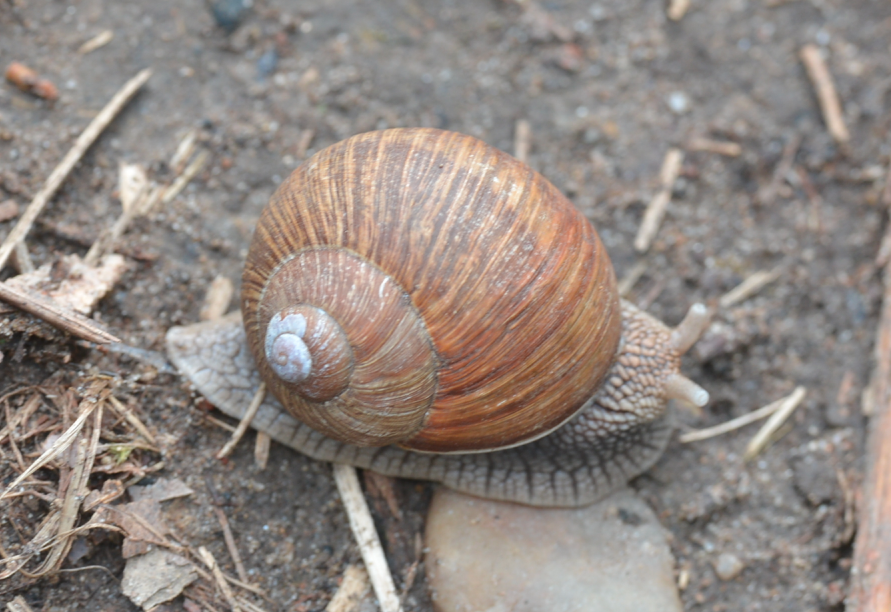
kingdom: Animalia
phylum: Mollusca
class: Gastropoda
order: Stylommatophora
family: Helicidae
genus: Helix
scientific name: Helix pomatia
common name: Roman snail
